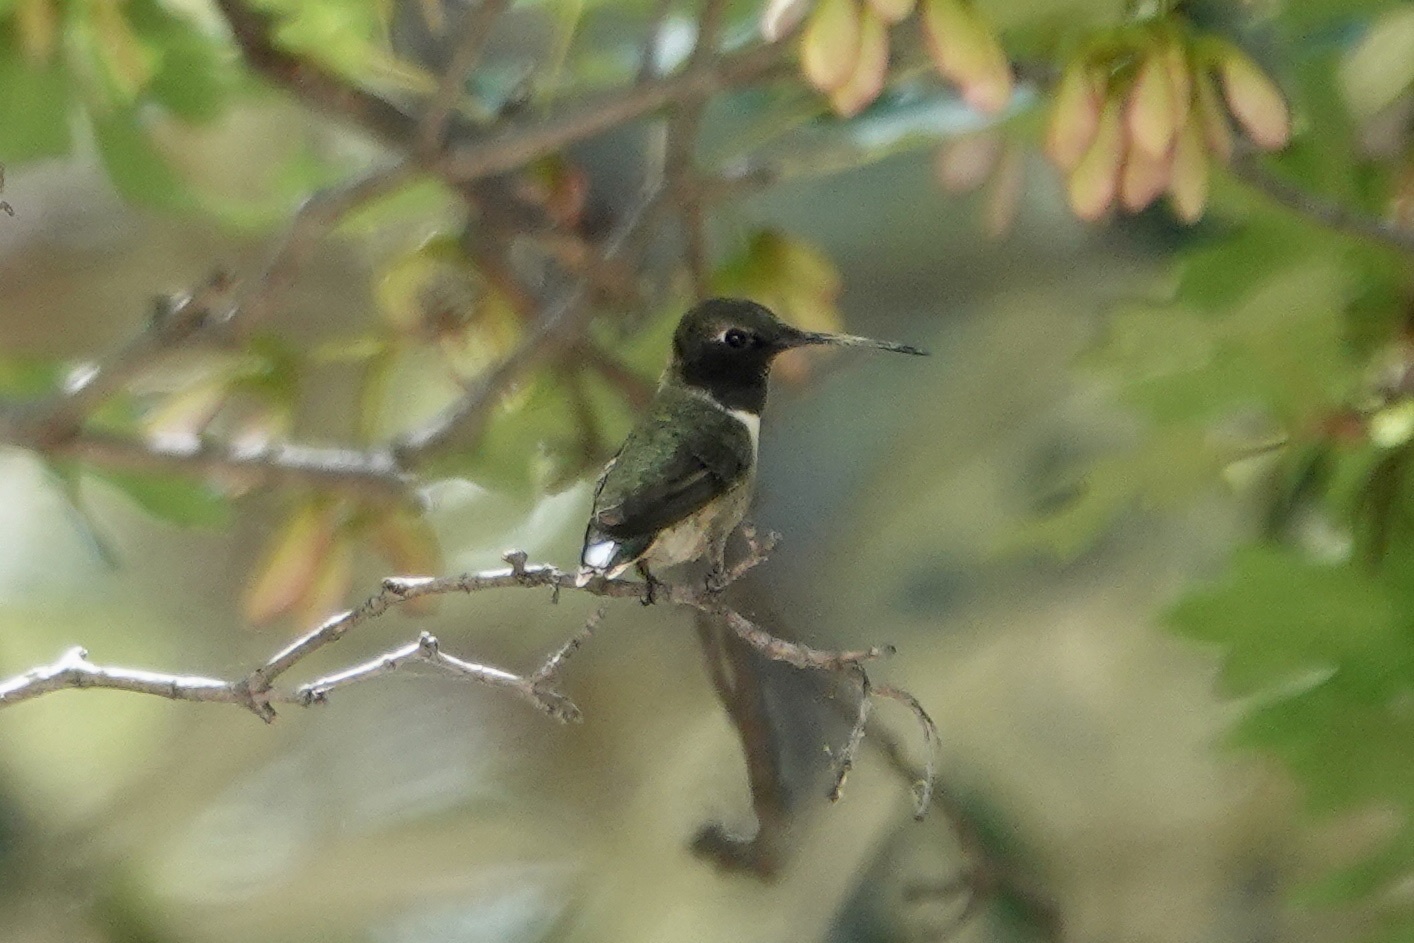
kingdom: Animalia
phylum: Chordata
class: Aves
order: Apodiformes
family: Trochilidae
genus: Archilochus
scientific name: Archilochus alexandri
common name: Black-chinned hummingbird
